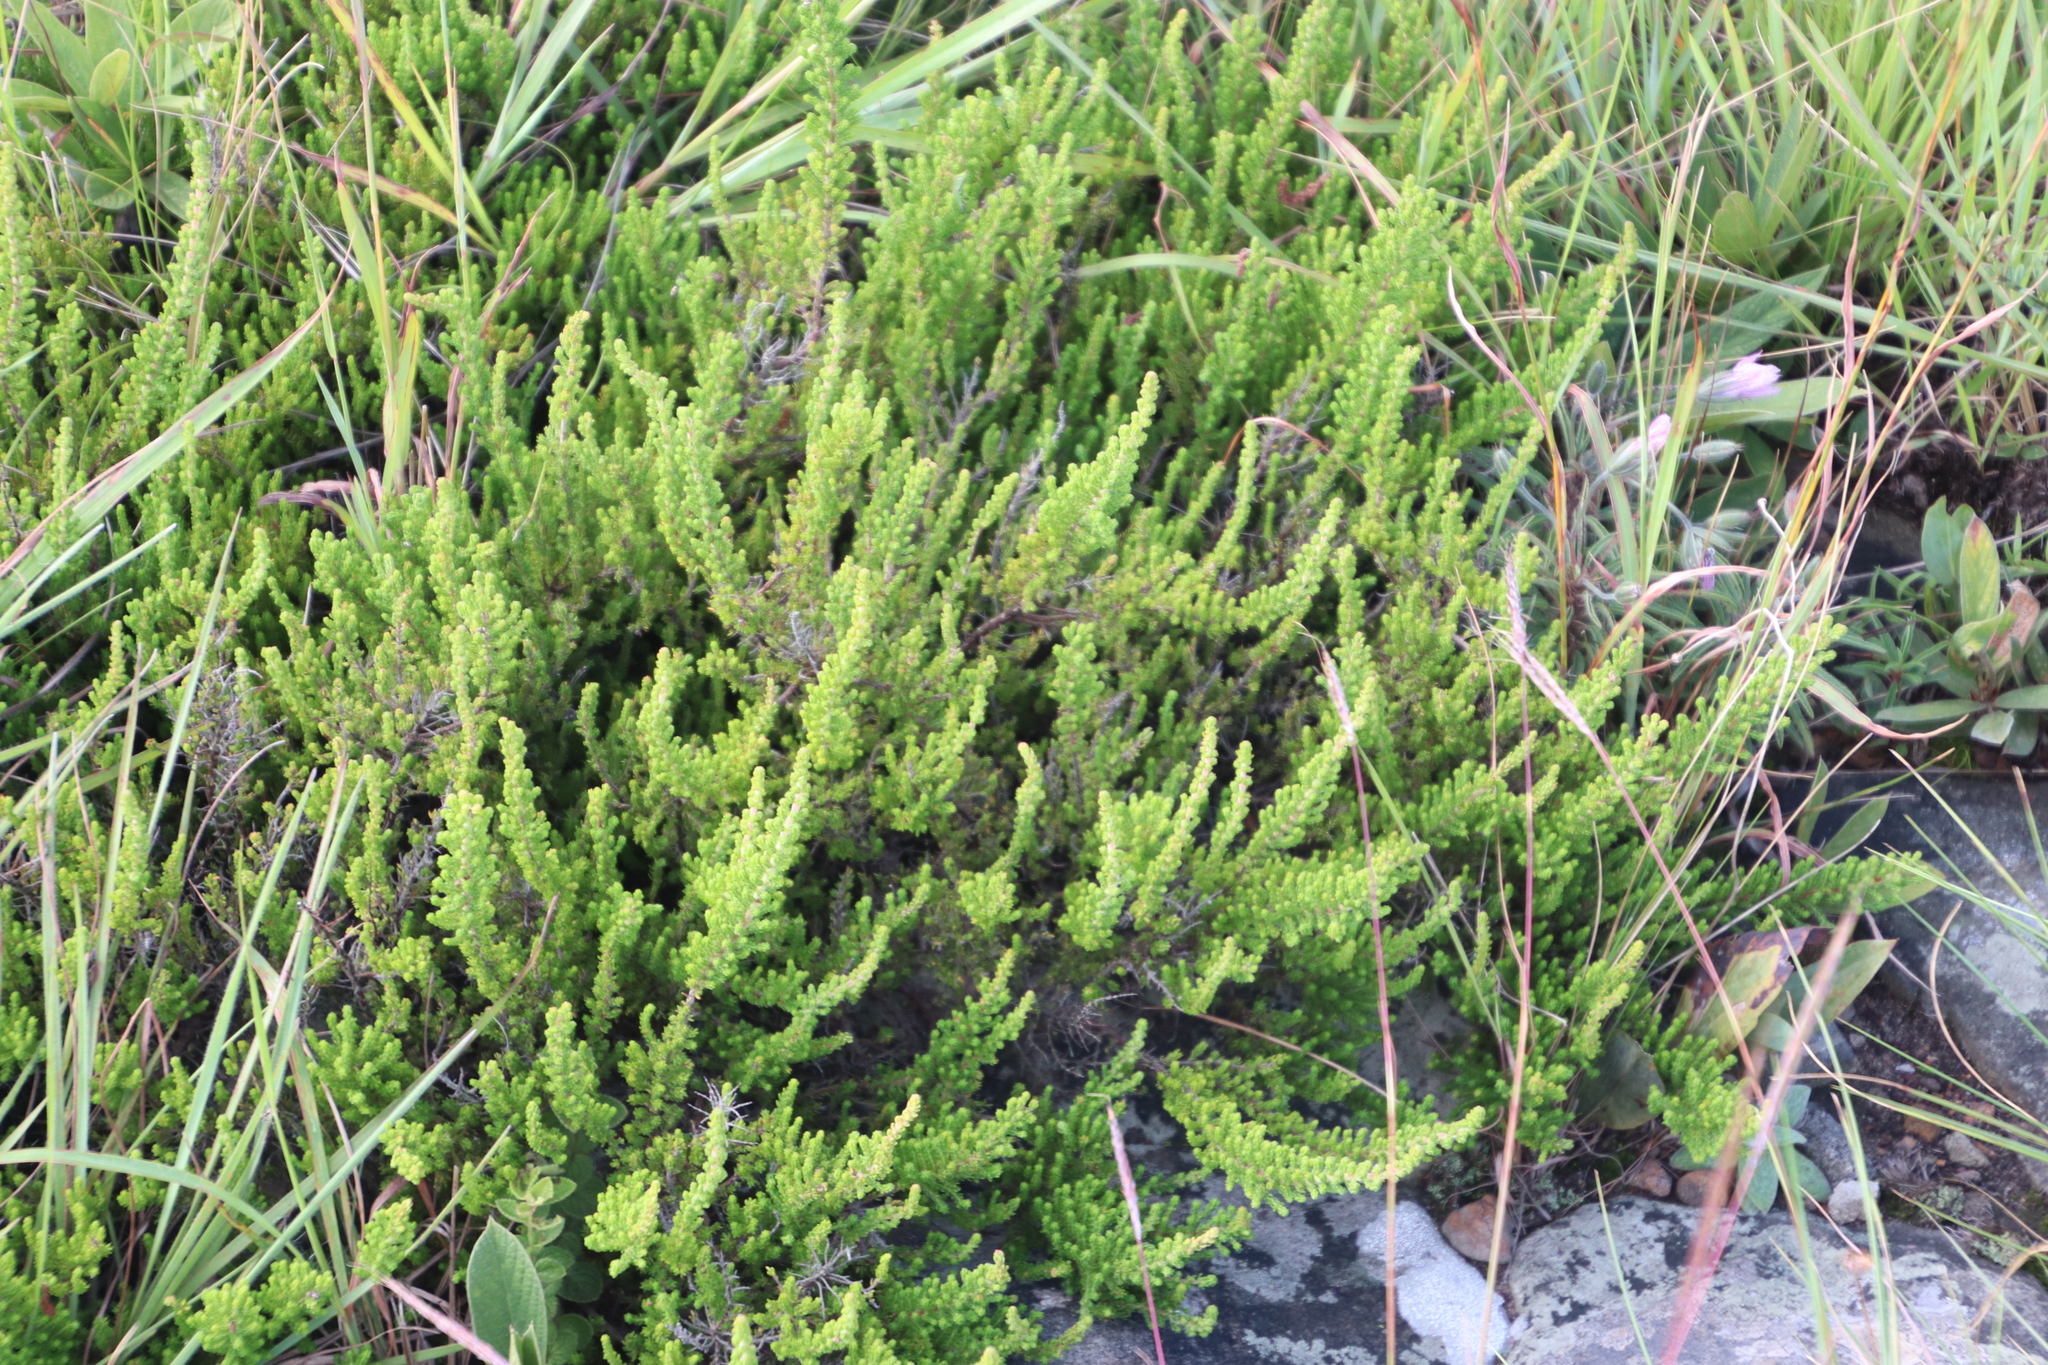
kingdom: Plantae
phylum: Tracheophyta
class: Magnoliopsida
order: Ericales
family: Ericaceae
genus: Erica
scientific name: Erica woodii
